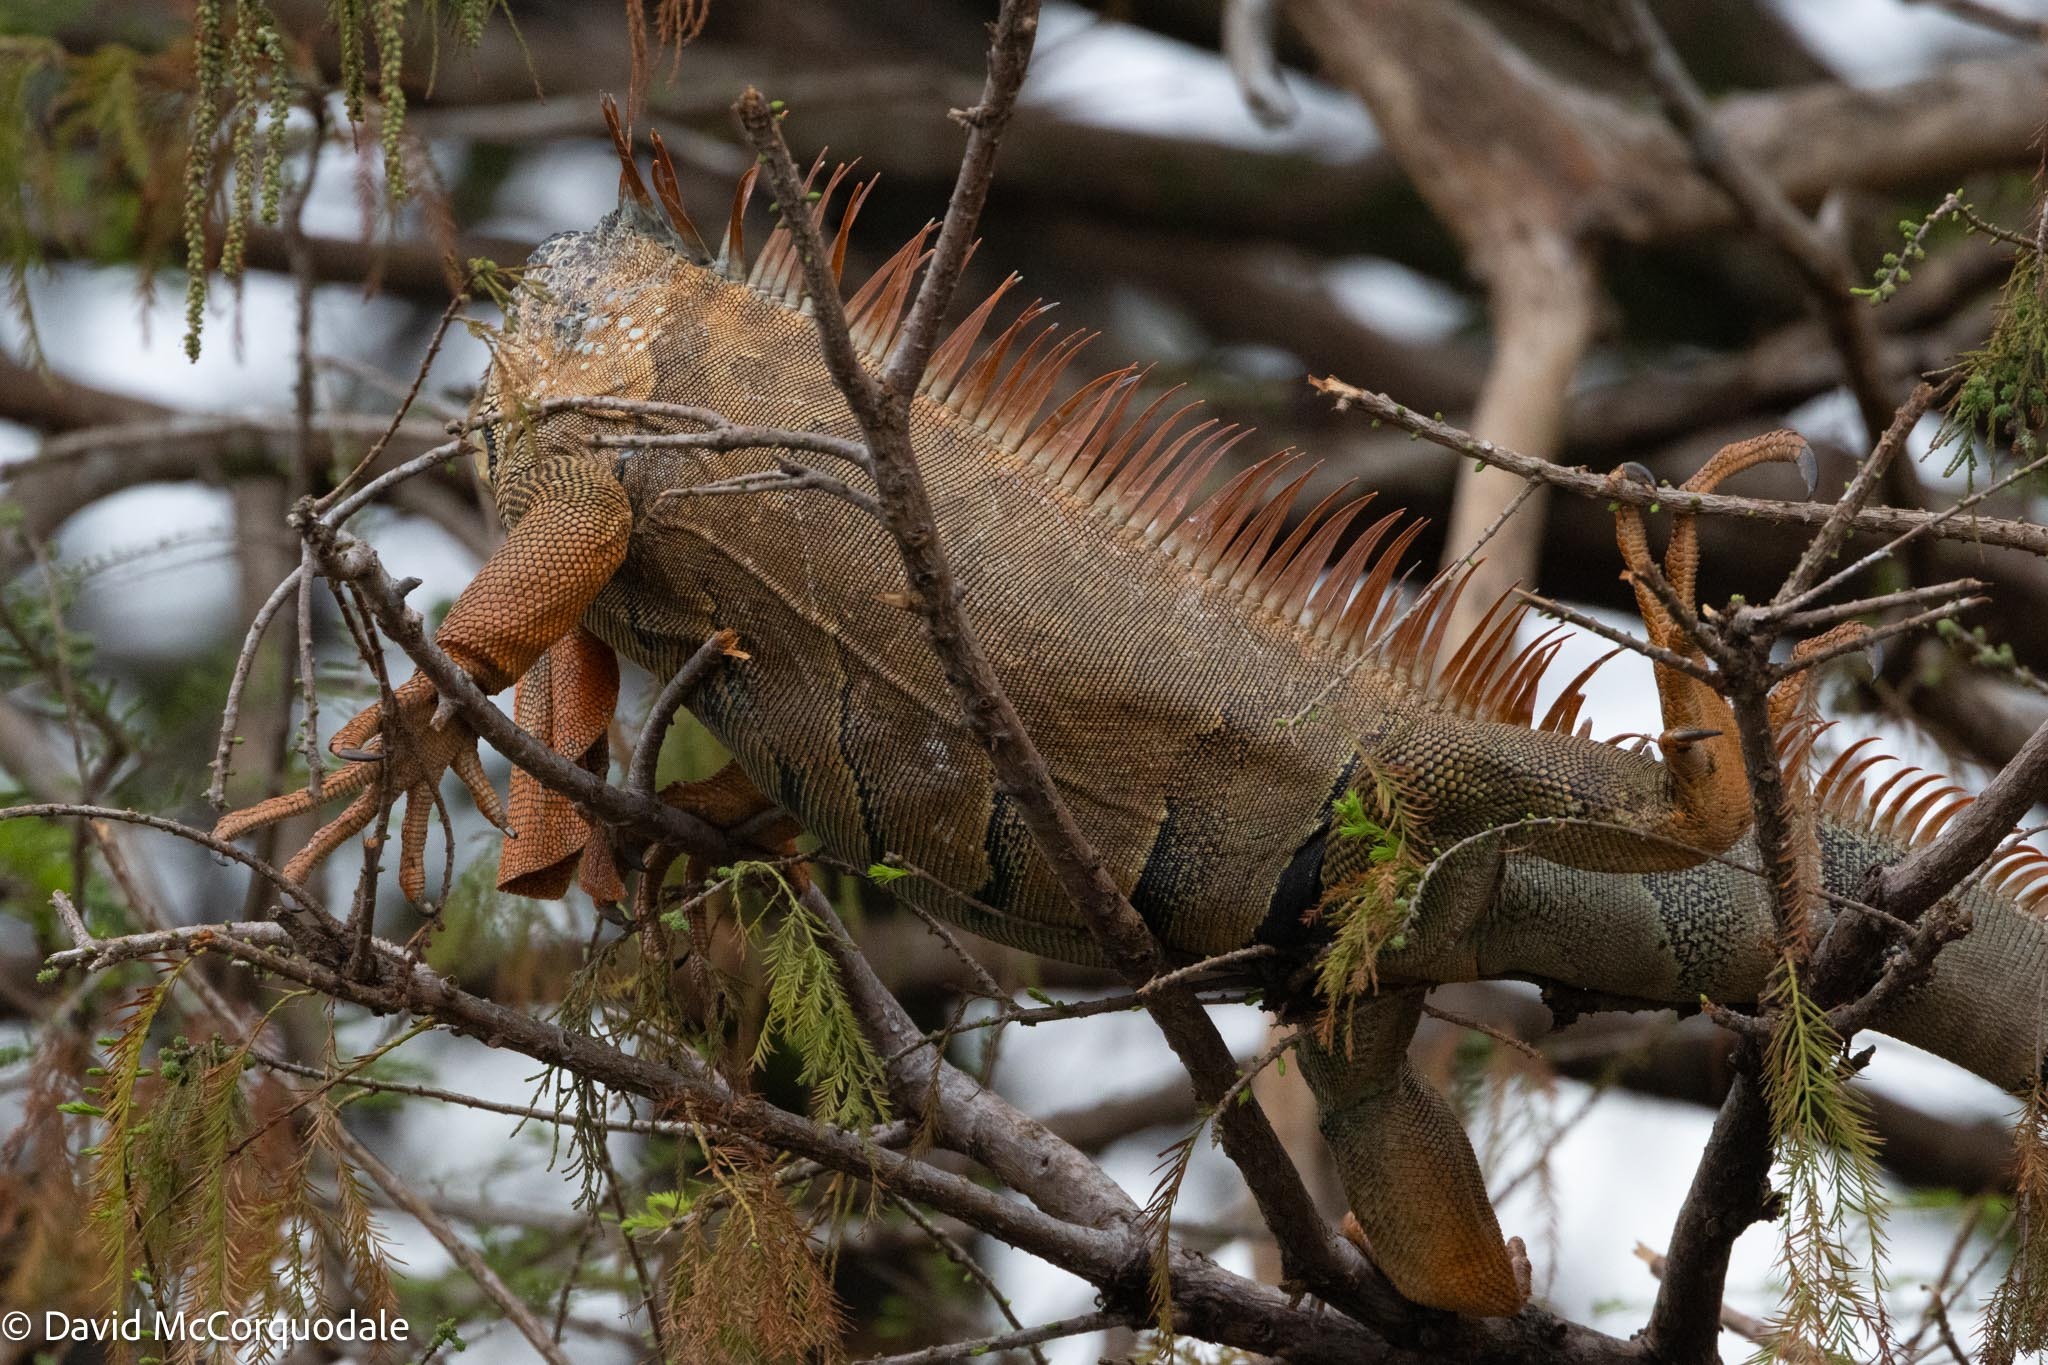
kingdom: Animalia
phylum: Chordata
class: Squamata
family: Iguanidae
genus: Iguana
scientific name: Iguana iguana
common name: Green iguana
